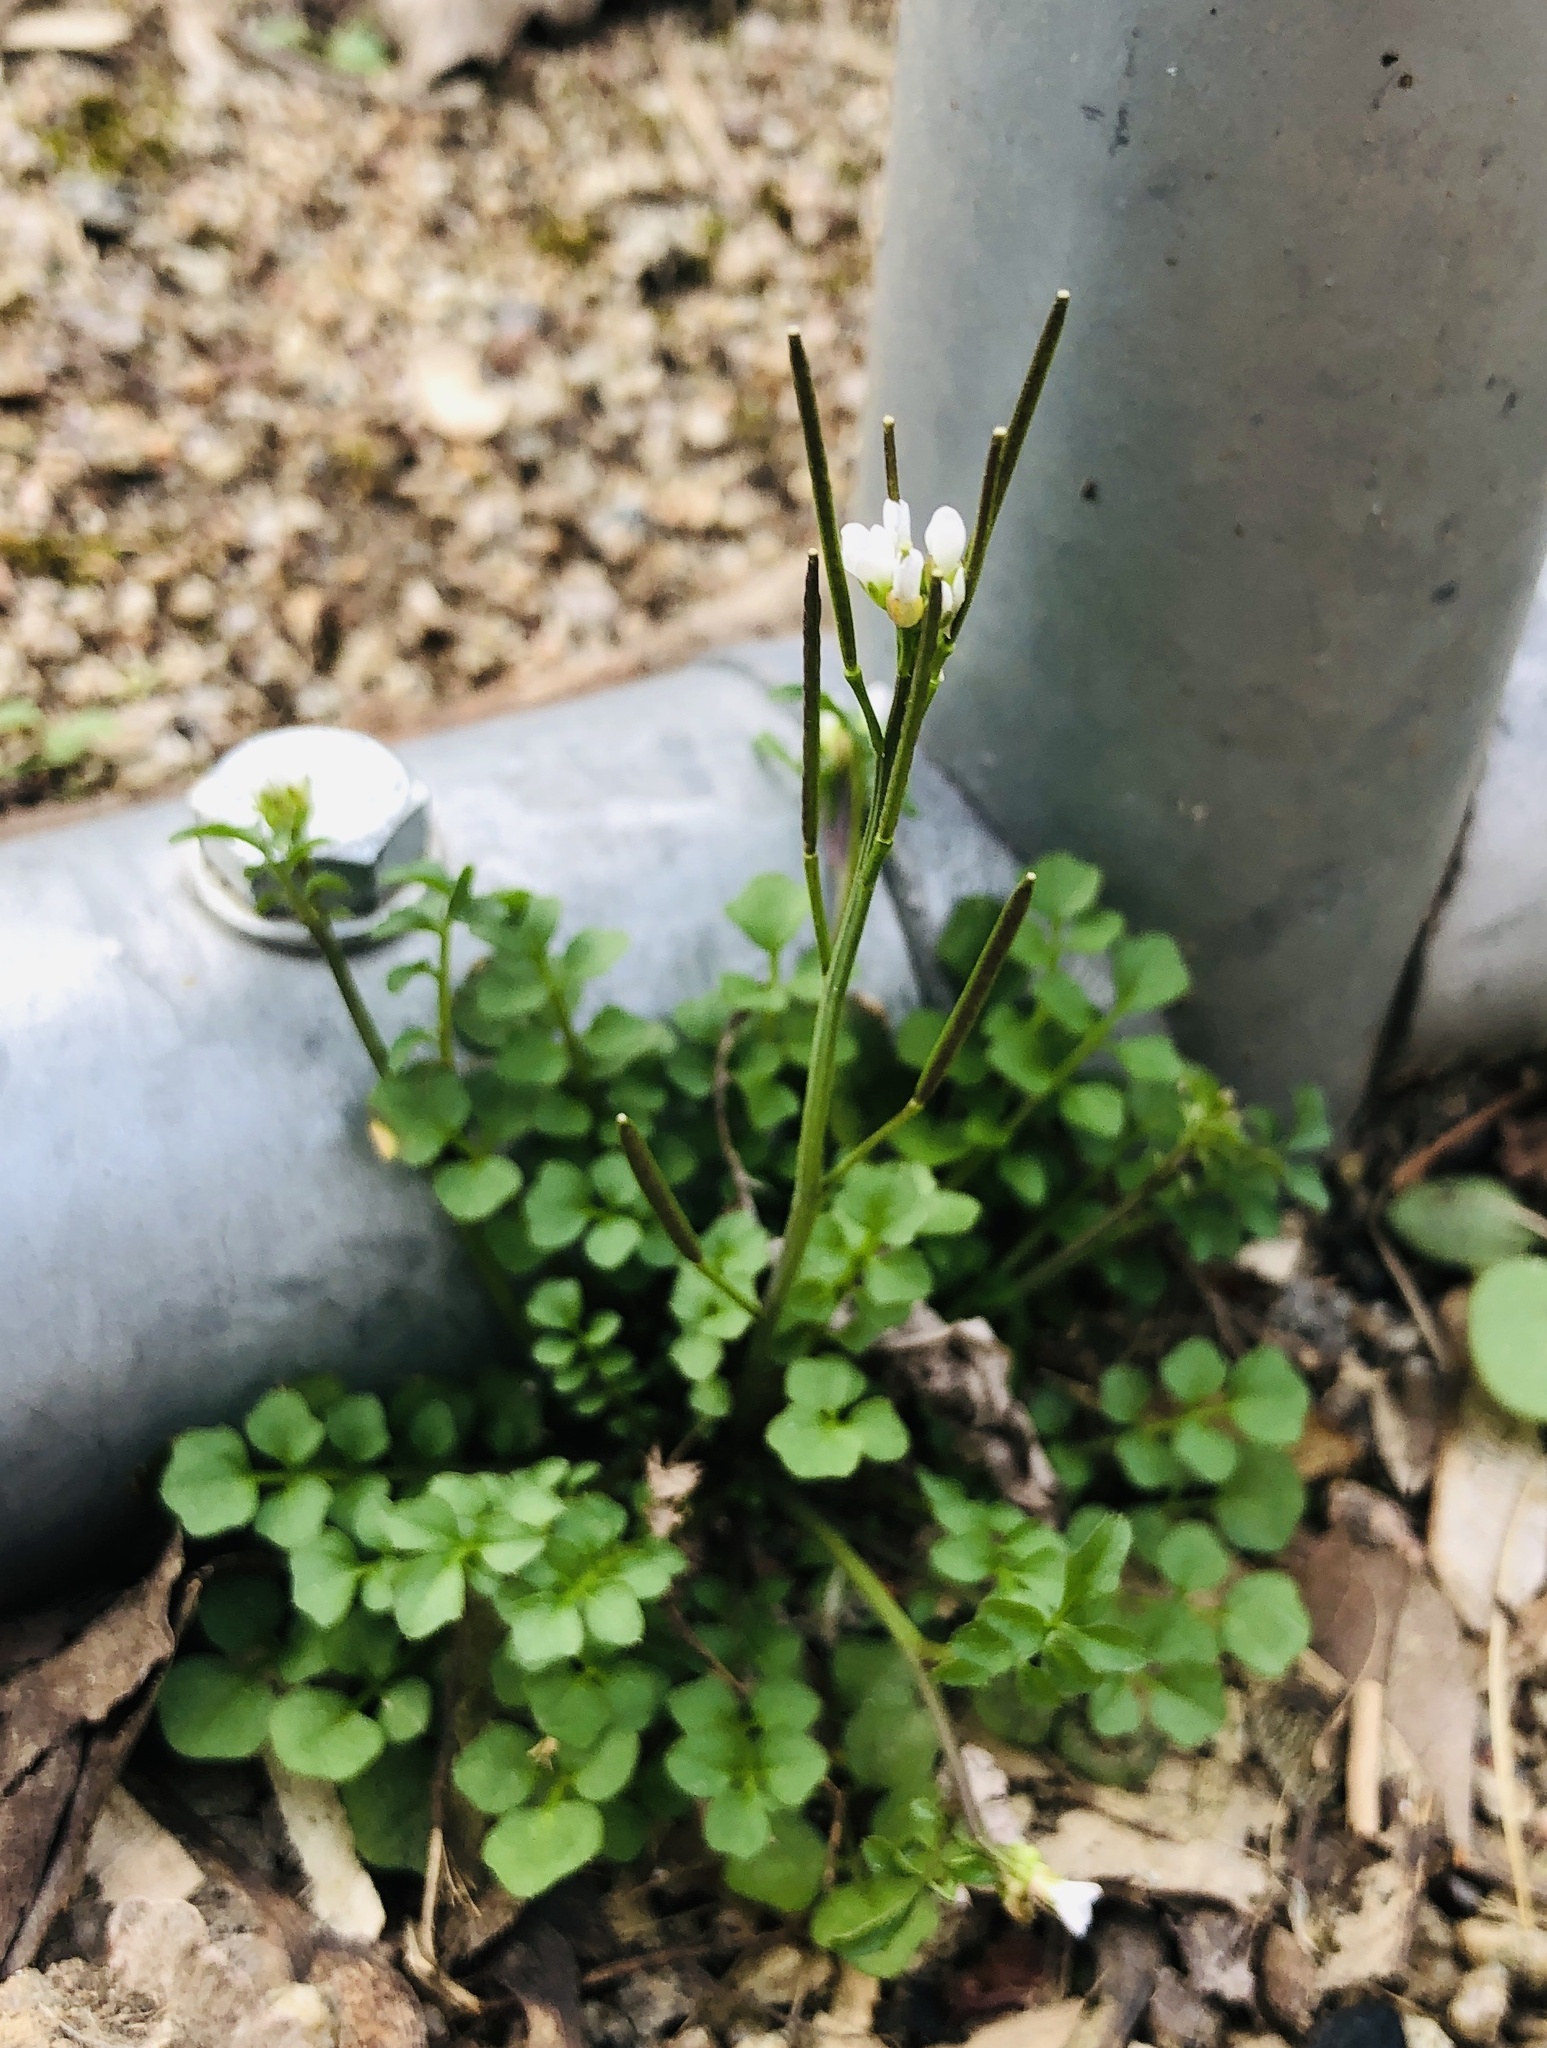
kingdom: Plantae
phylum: Tracheophyta
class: Magnoliopsida
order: Brassicales
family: Brassicaceae
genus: Cardamine
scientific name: Cardamine hirsuta
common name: Hairy bittercress
